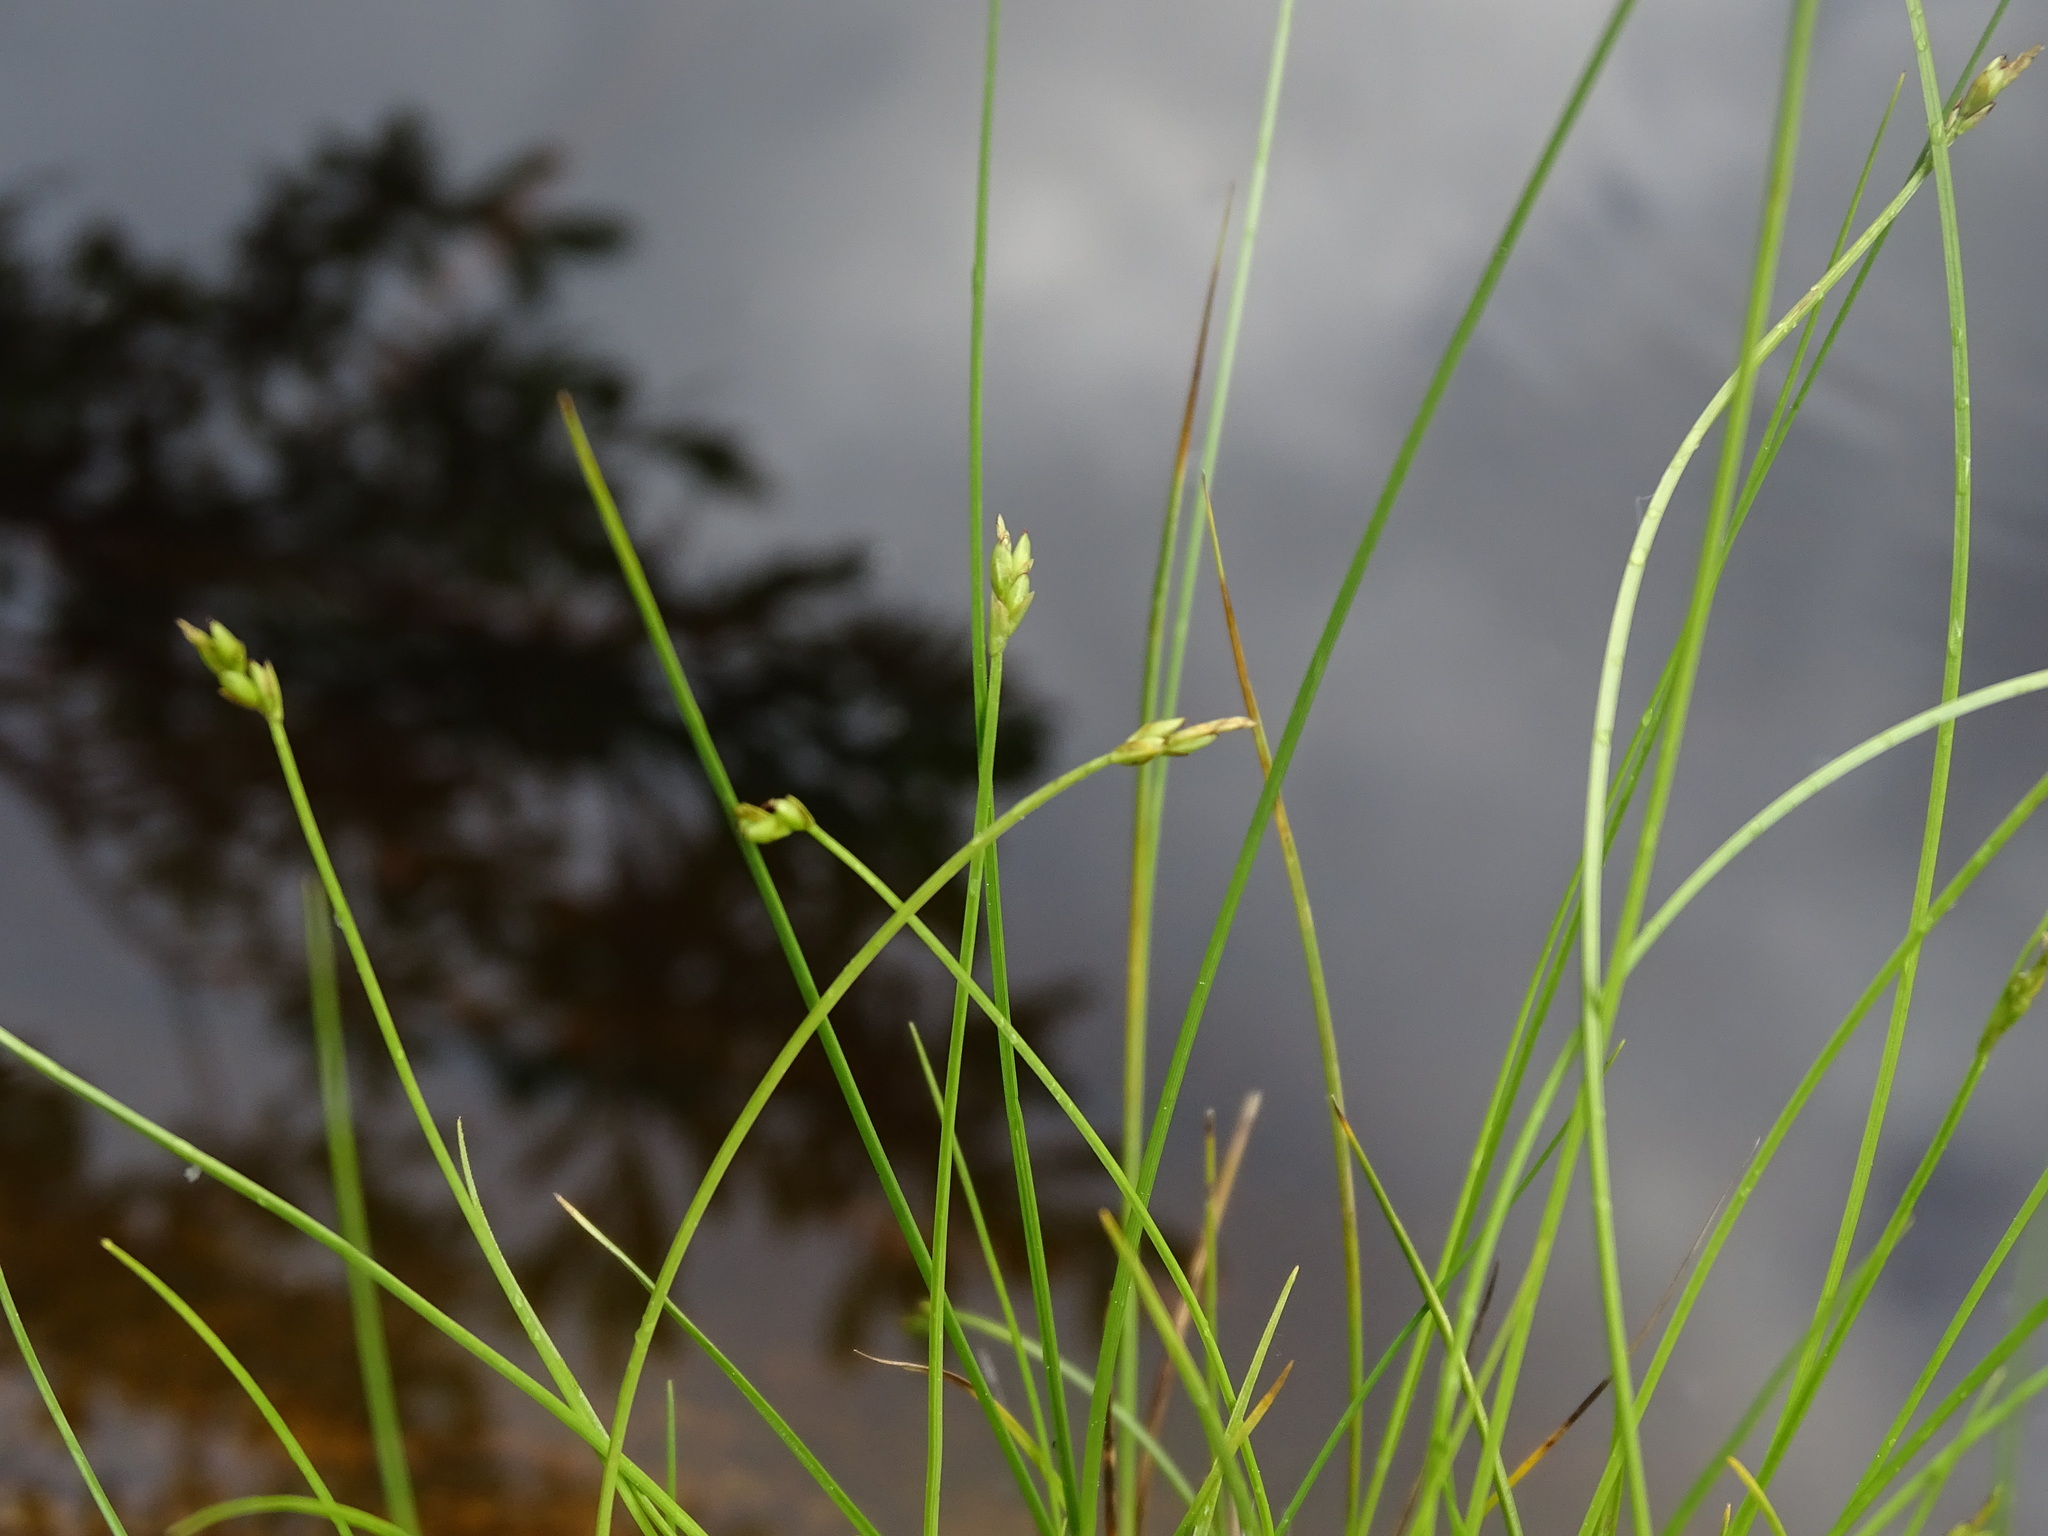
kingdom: Plantae
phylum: Tracheophyta
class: Liliopsida
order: Poales
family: Cyperaceae
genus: Carex
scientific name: Carex leptalea
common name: Bristly-stalked sedge
